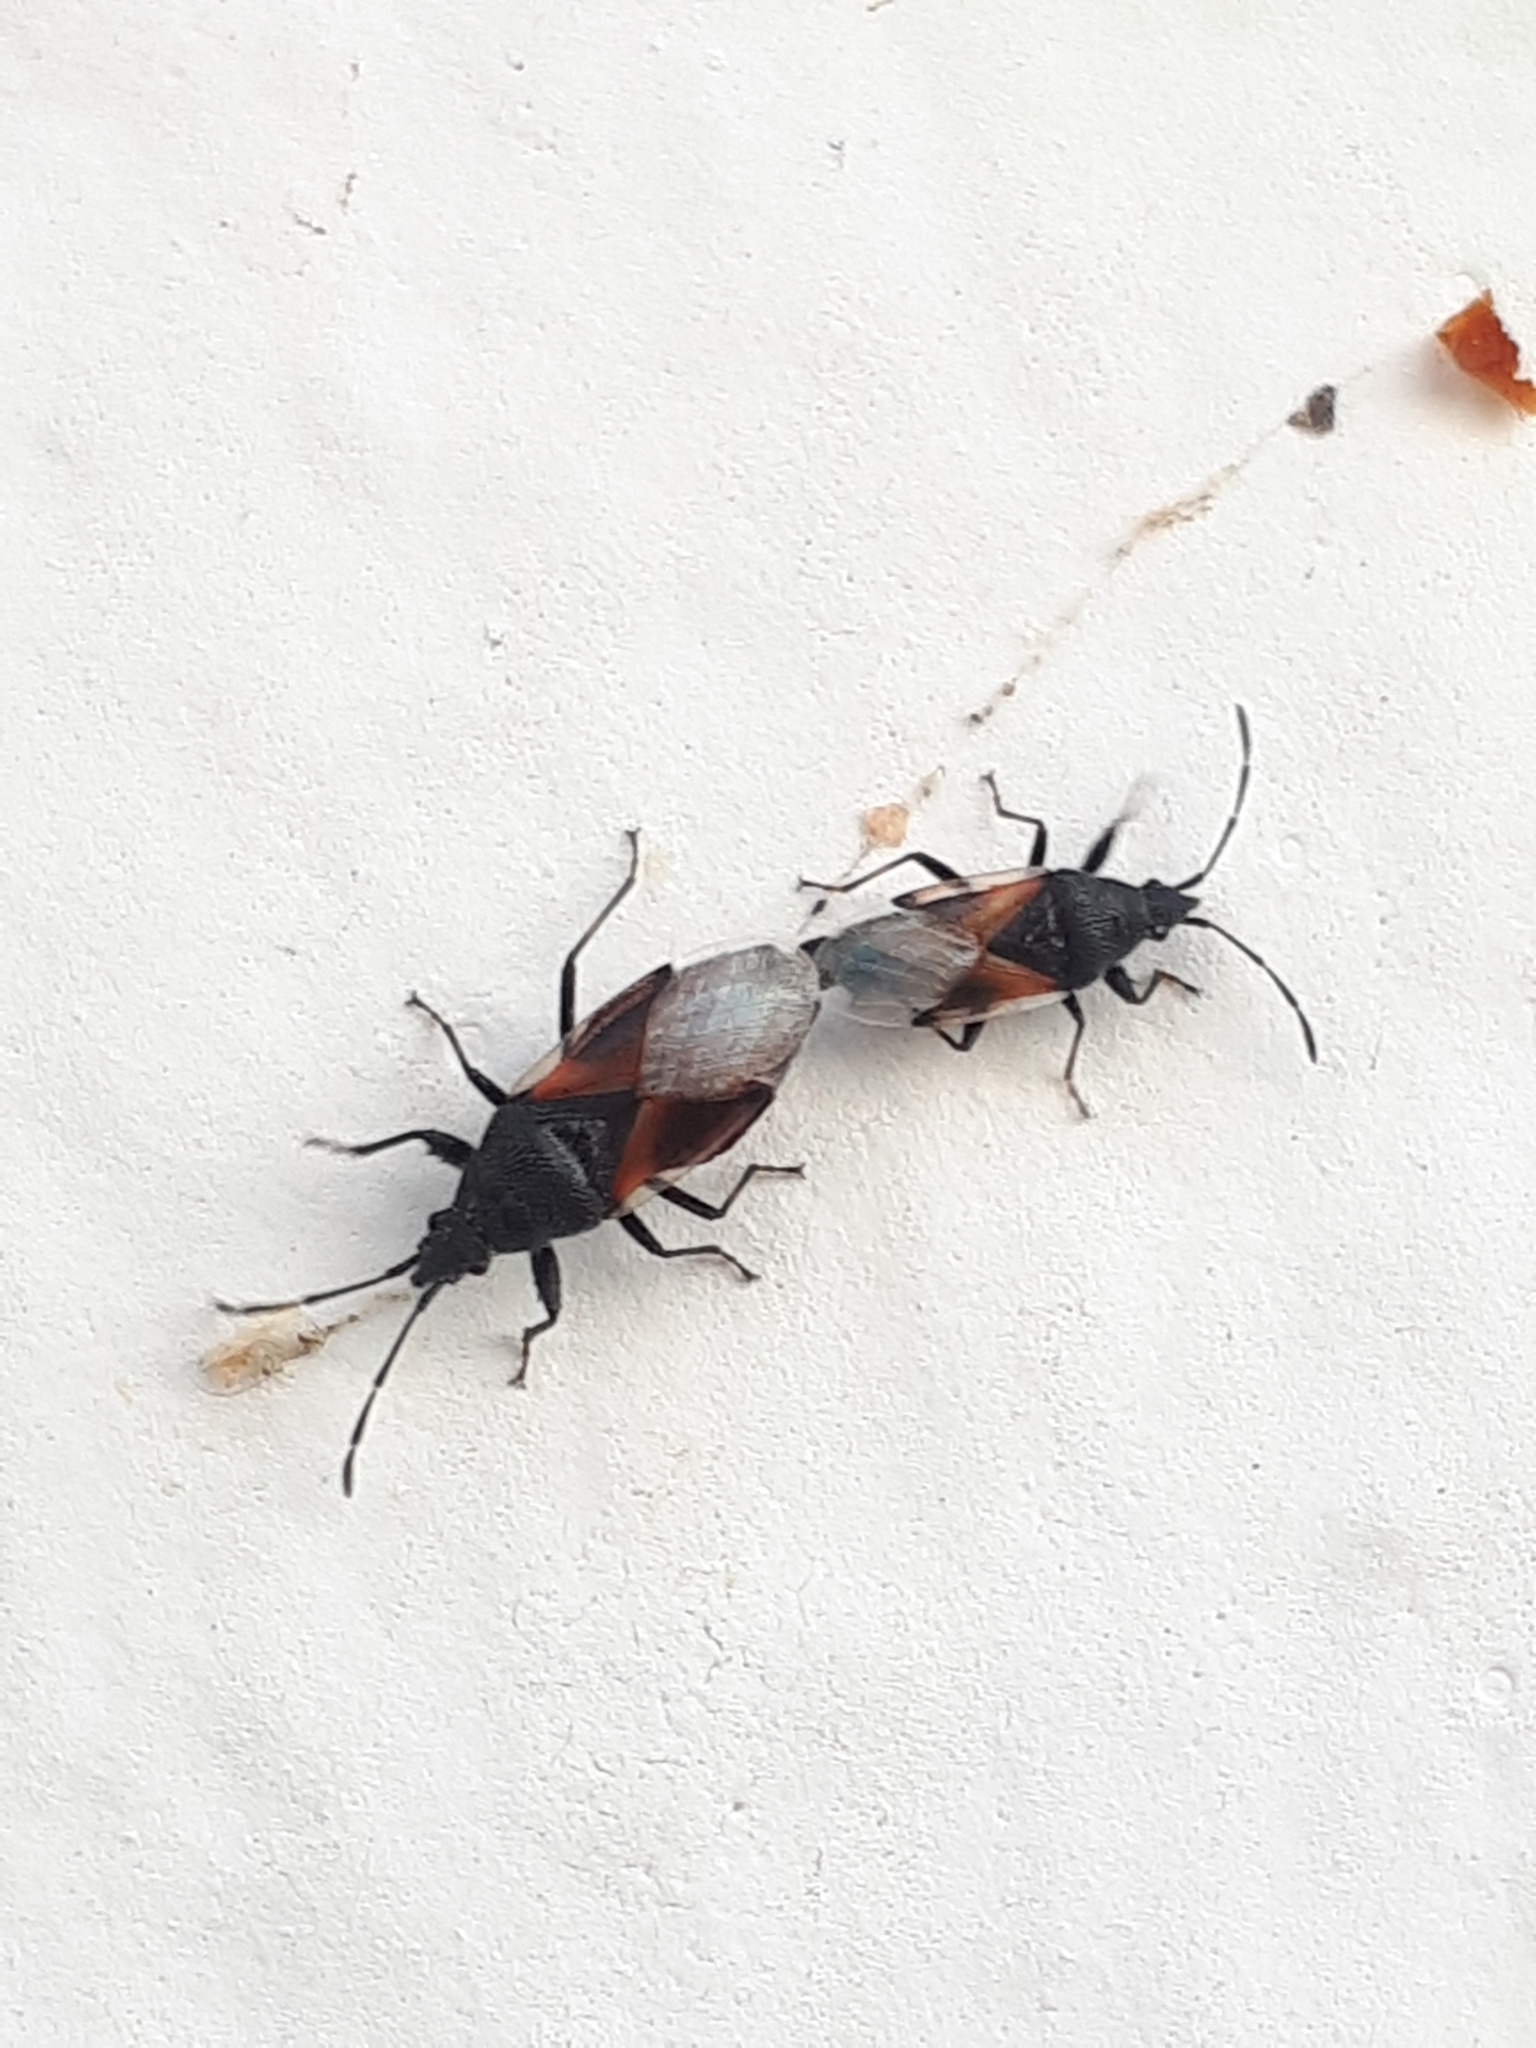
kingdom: Animalia
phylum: Arthropoda
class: Insecta
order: Hemiptera
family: Oxycarenidae
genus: Oxycarenus
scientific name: Oxycarenus lavaterae
